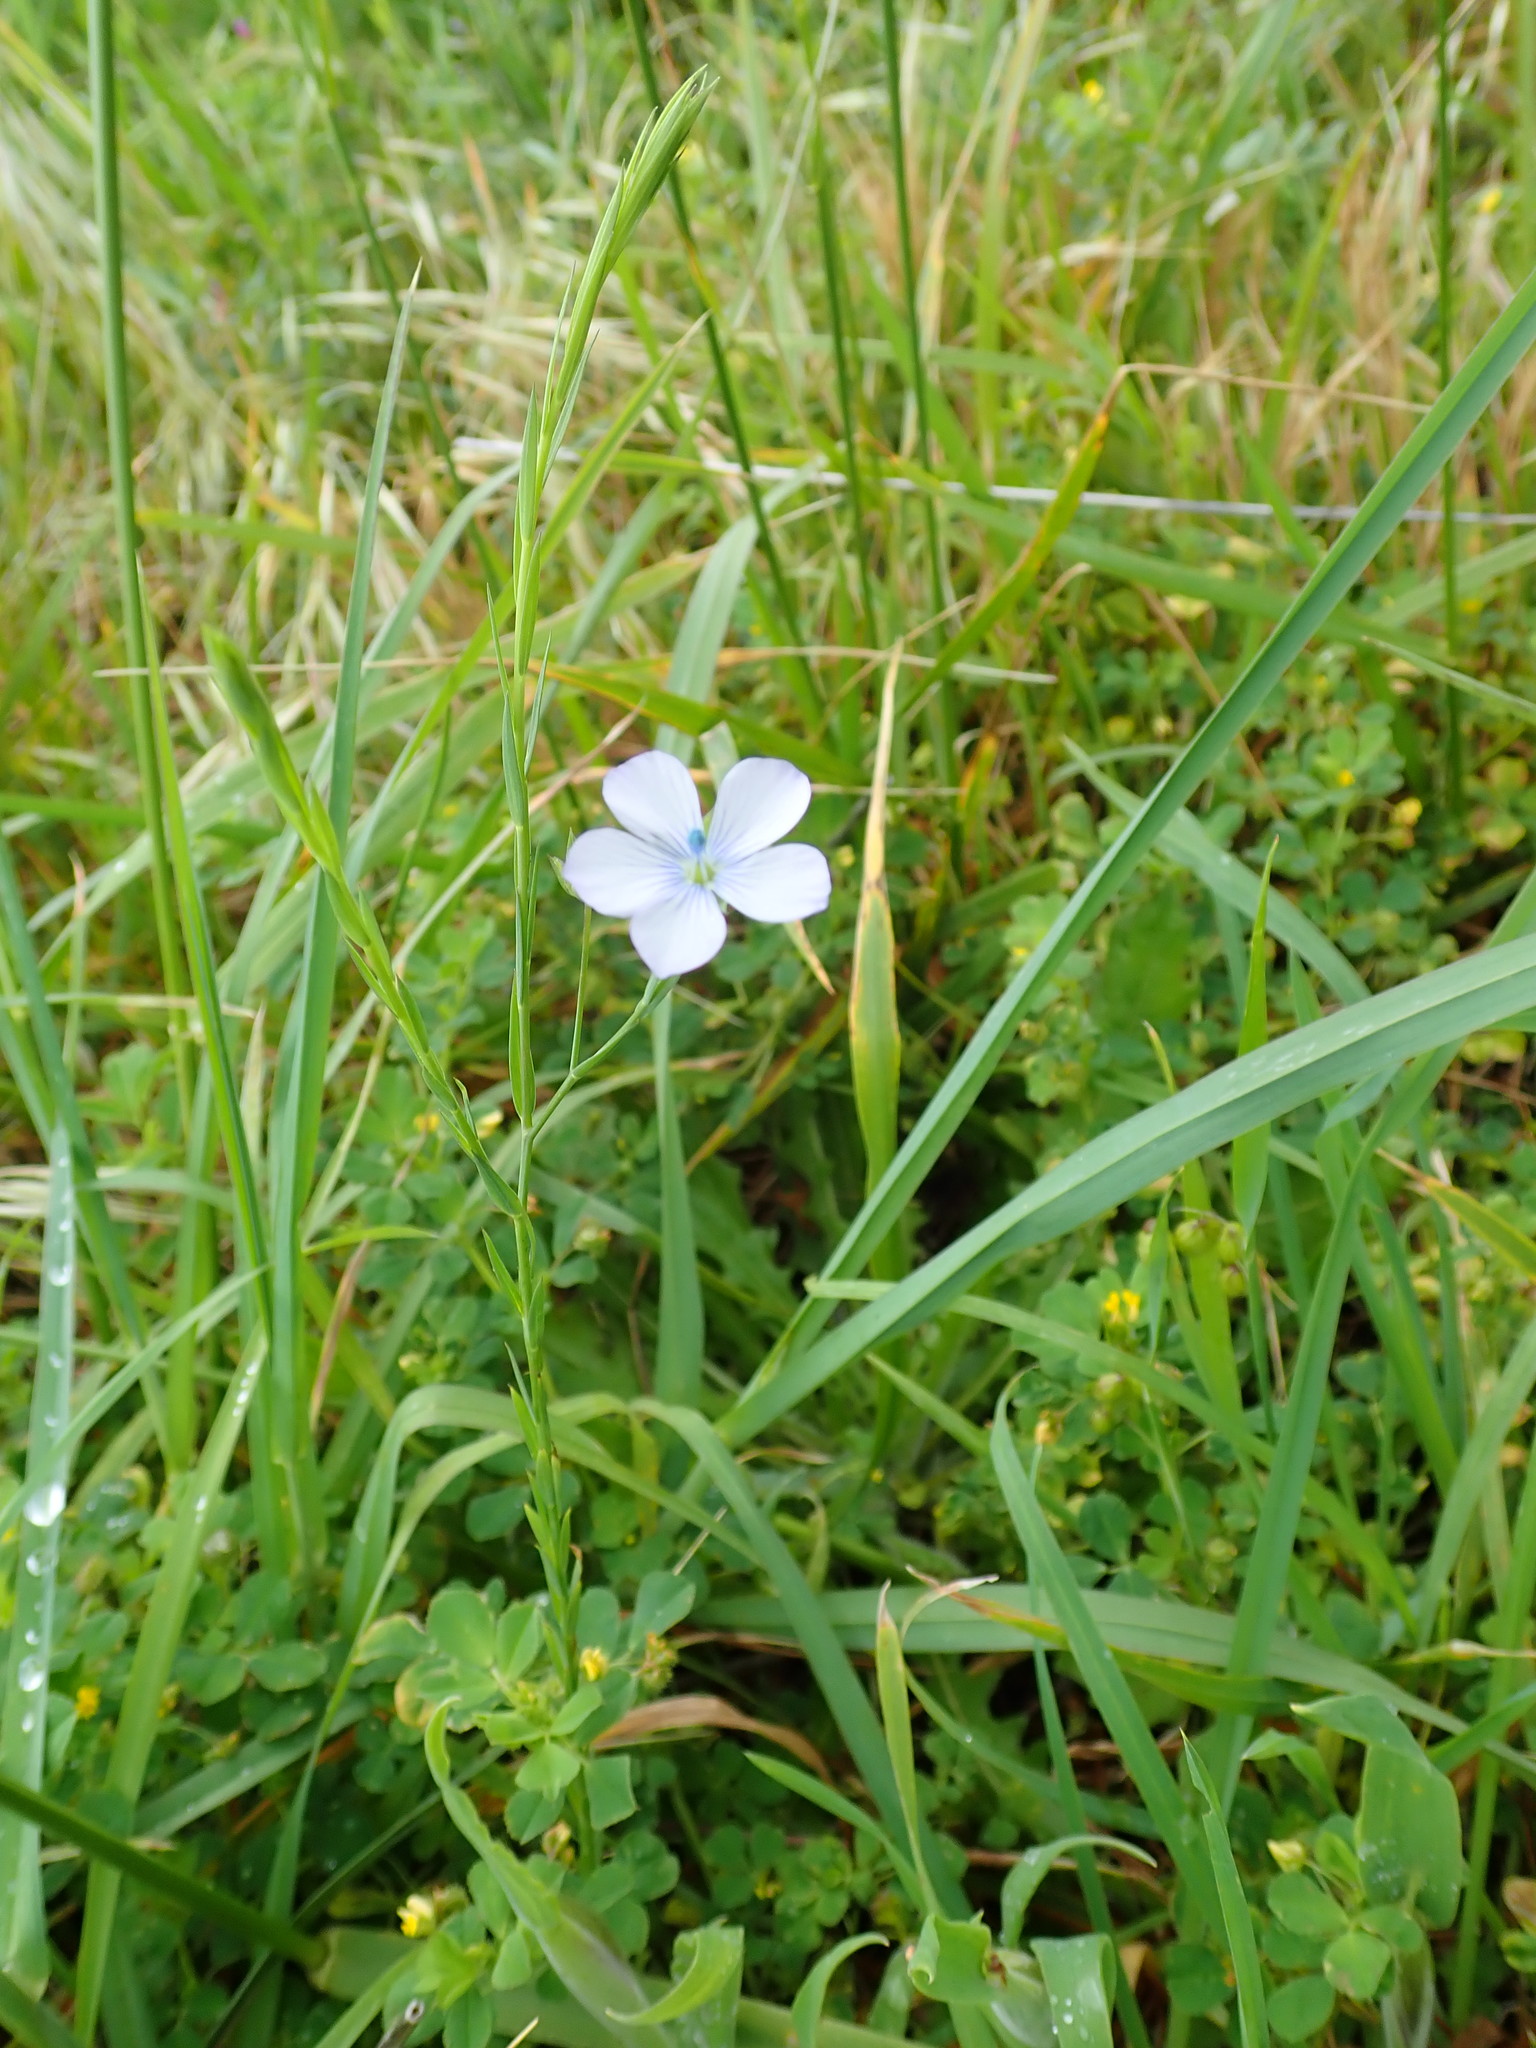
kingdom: Plantae
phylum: Tracheophyta
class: Magnoliopsida
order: Malpighiales
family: Linaceae
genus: Linum
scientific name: Linum bienne
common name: Pale flax
